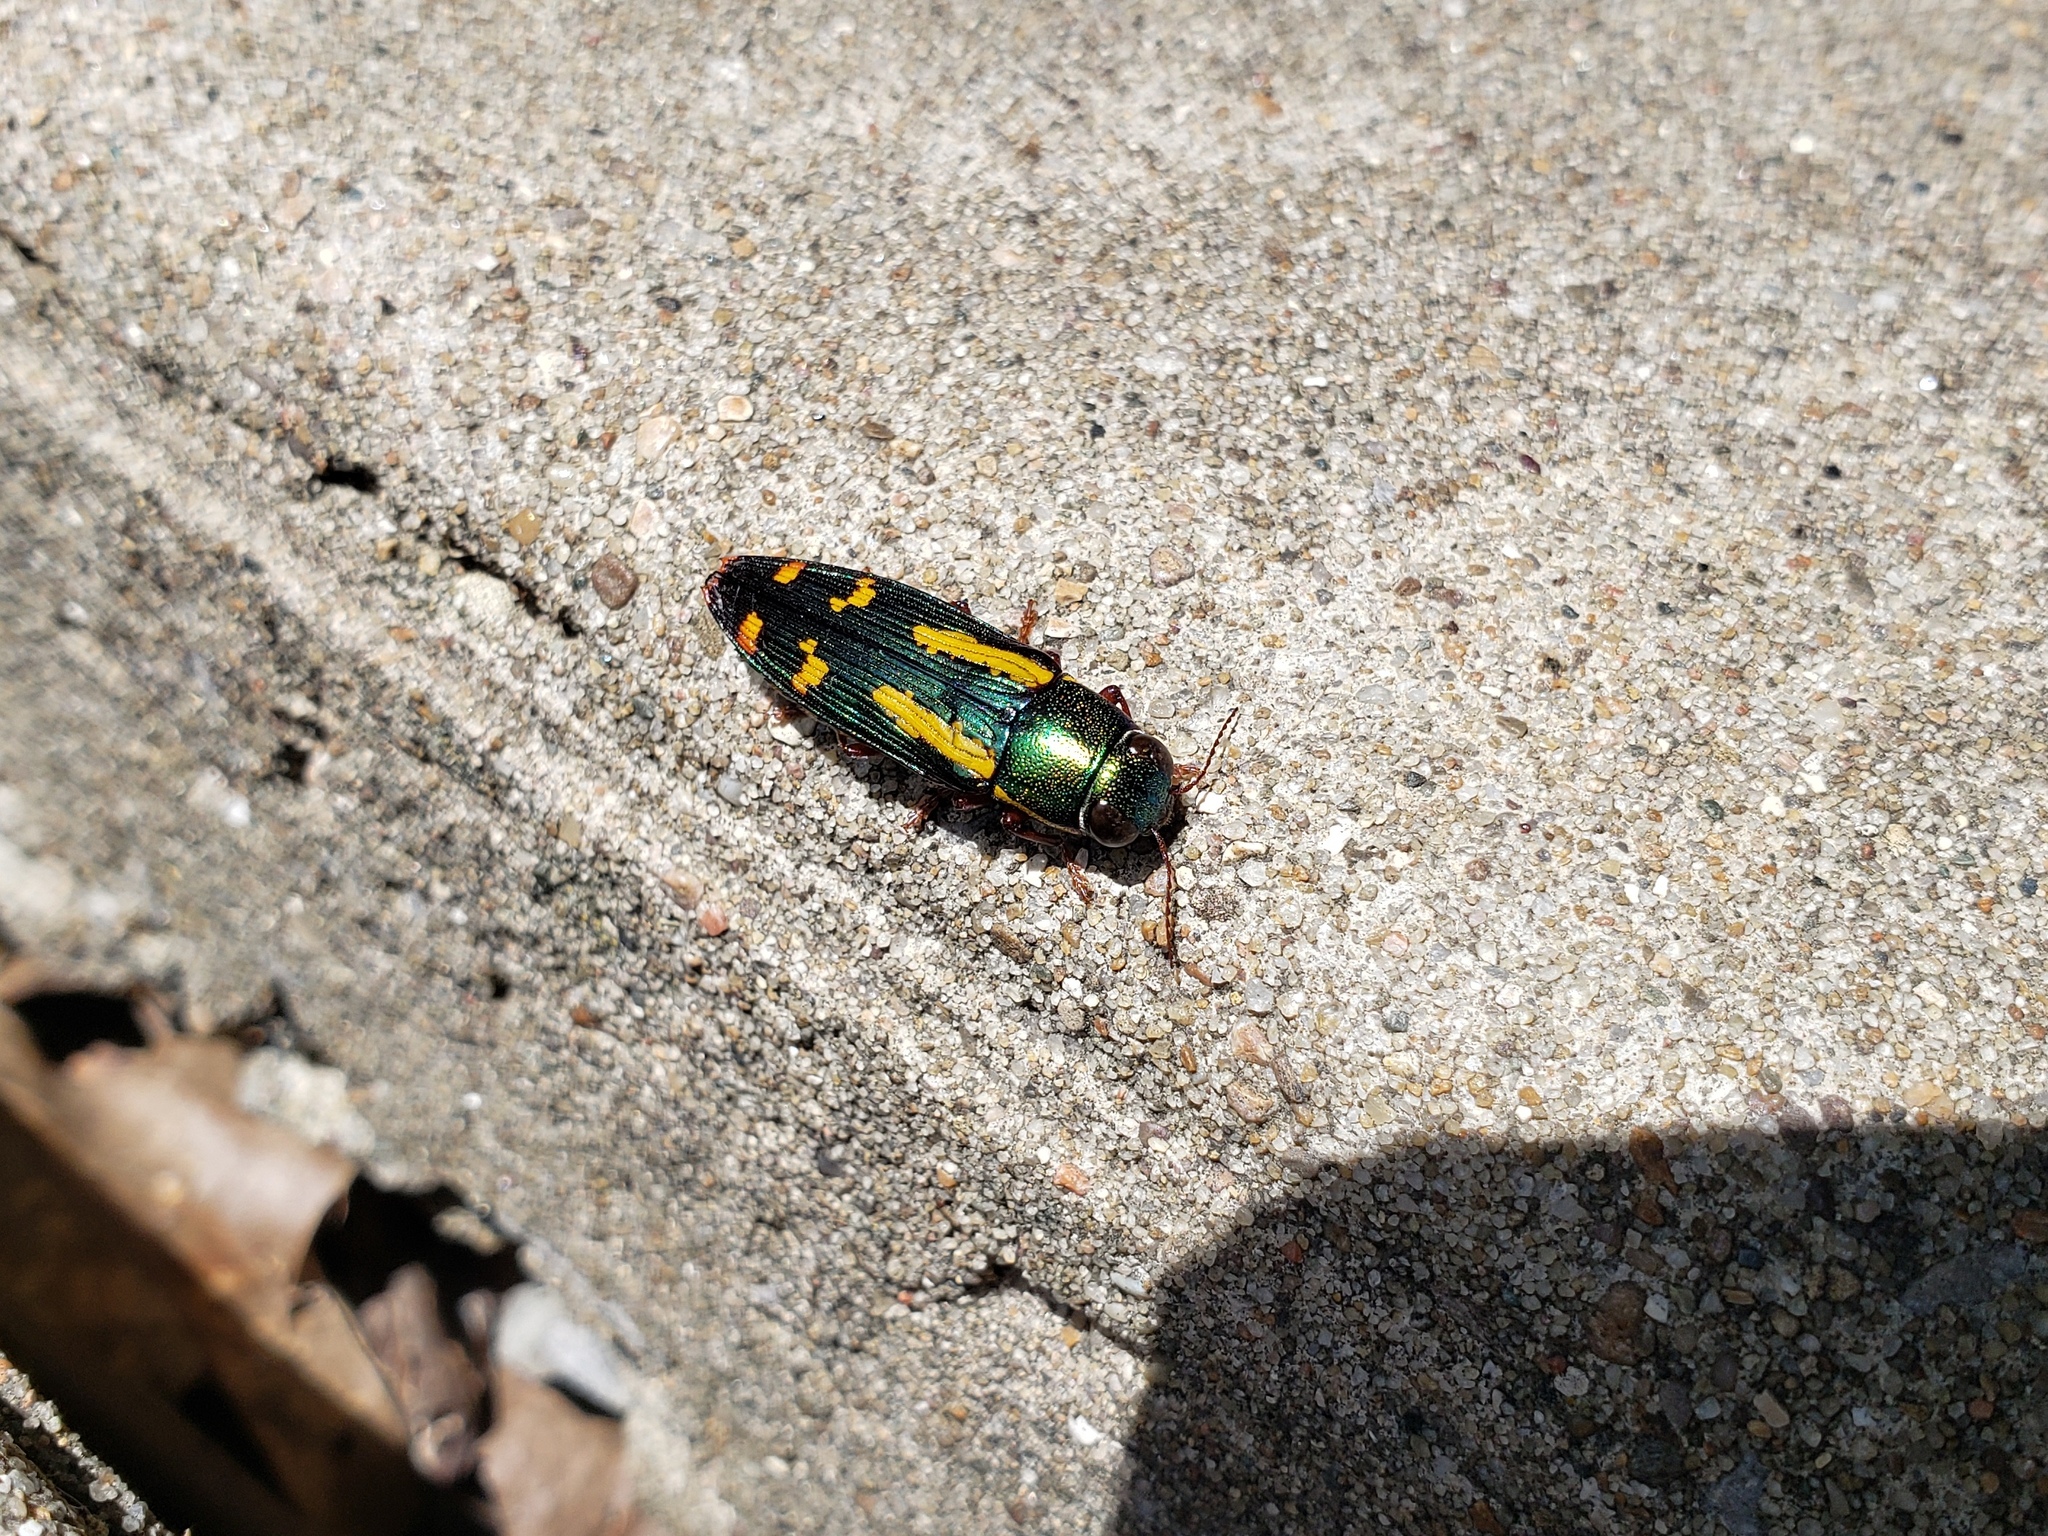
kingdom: Animalia
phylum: Arthropoda
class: Insecta
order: Coleoptera
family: Buprestidae
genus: Buprestis
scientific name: Buprestis rufipes
